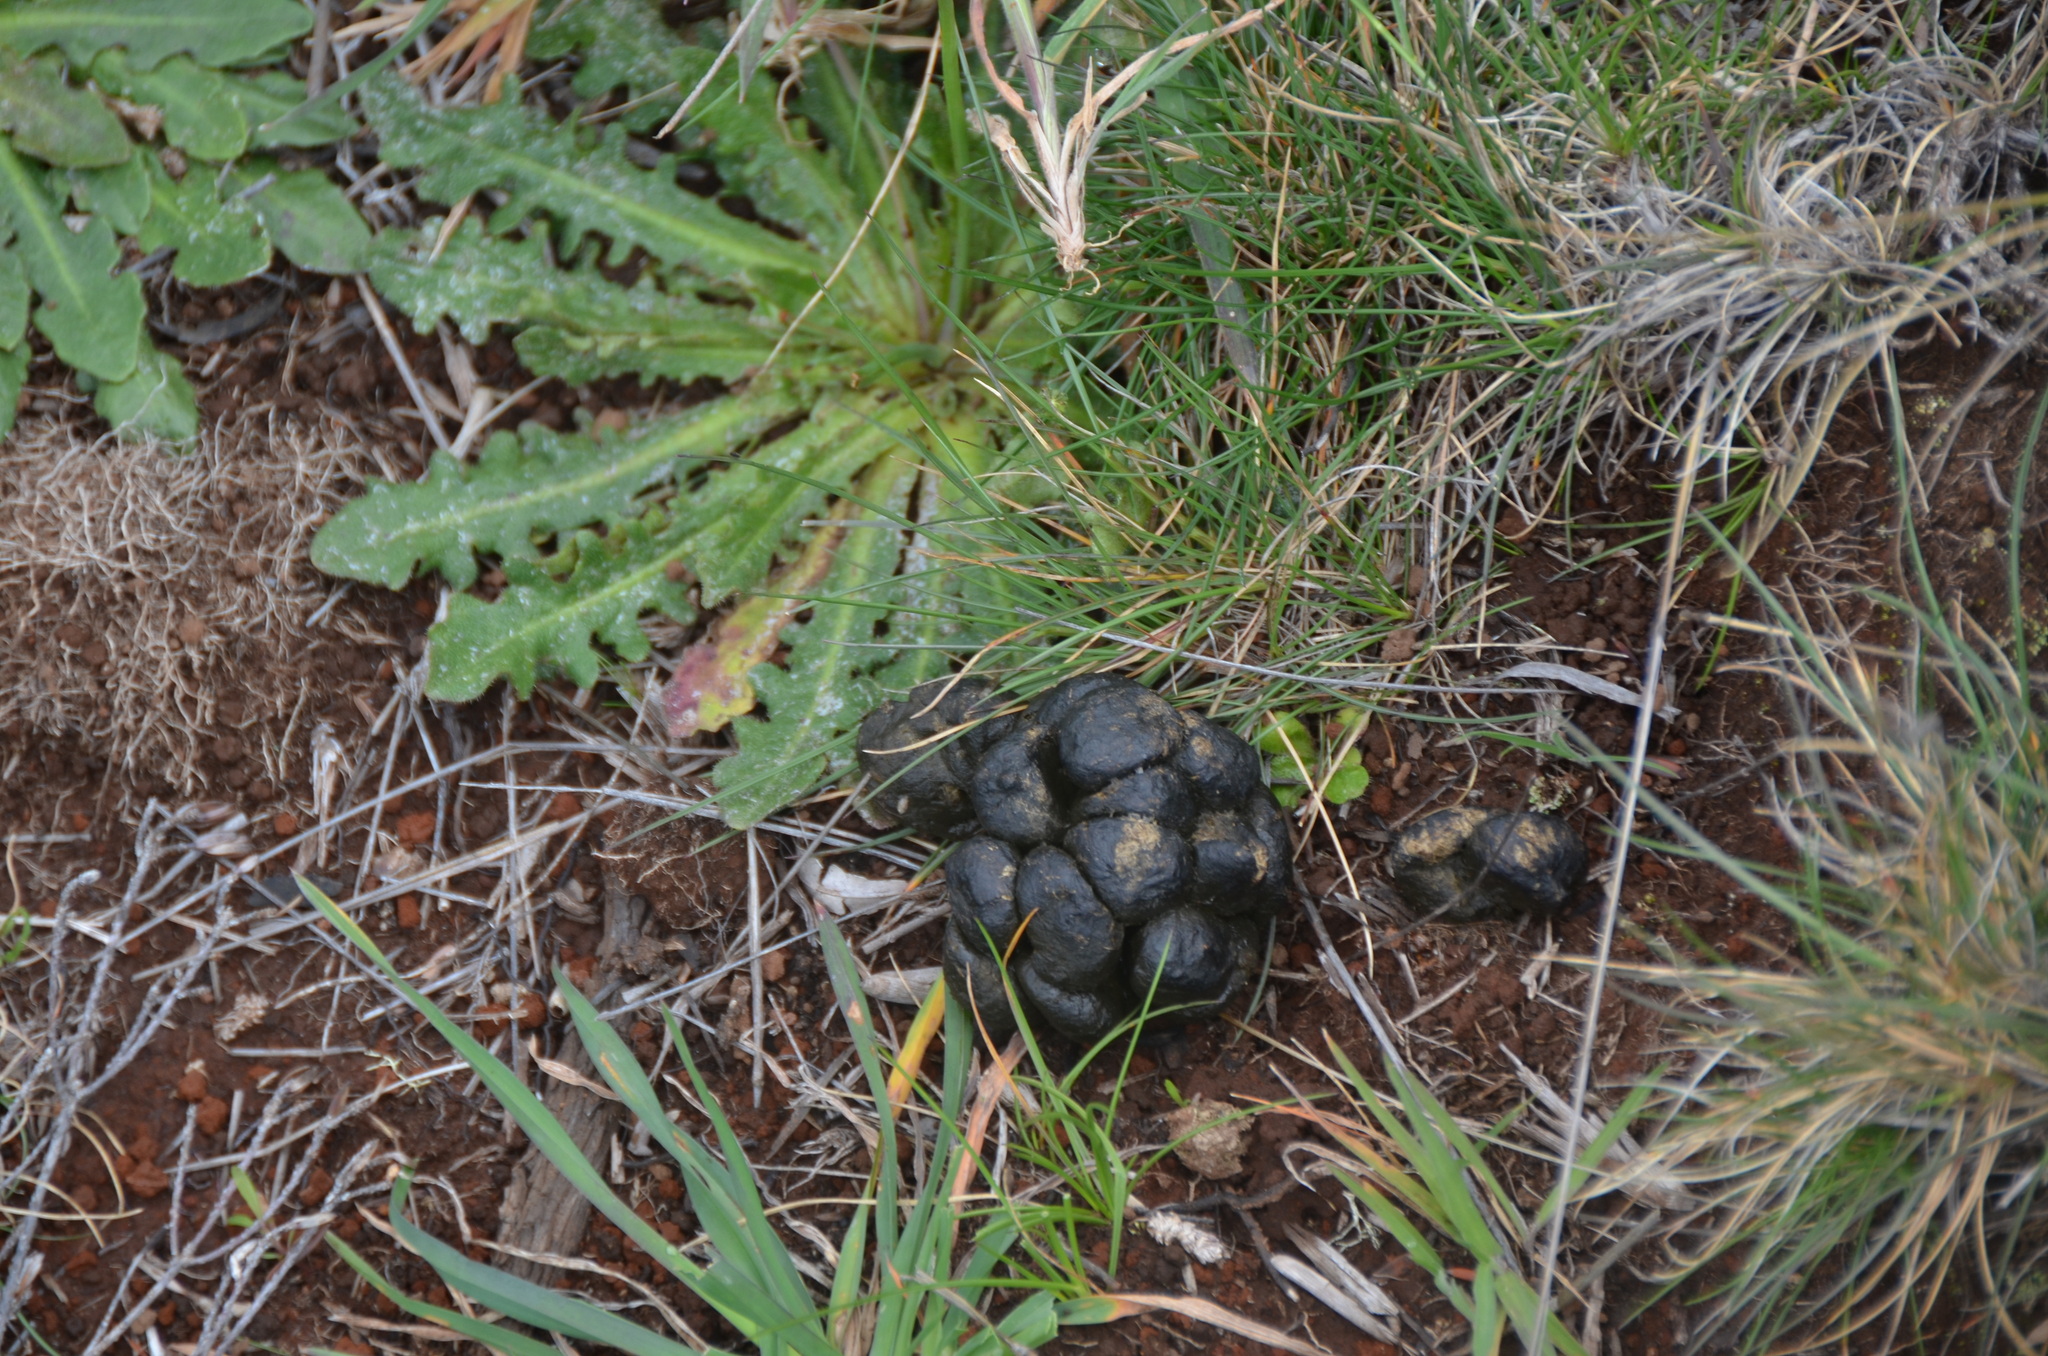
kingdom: Animalia
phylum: Chordata
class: Mammalia
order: Artiodactyla
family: Bovidae
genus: Capra
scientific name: Capra hircus
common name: Domestic goat
